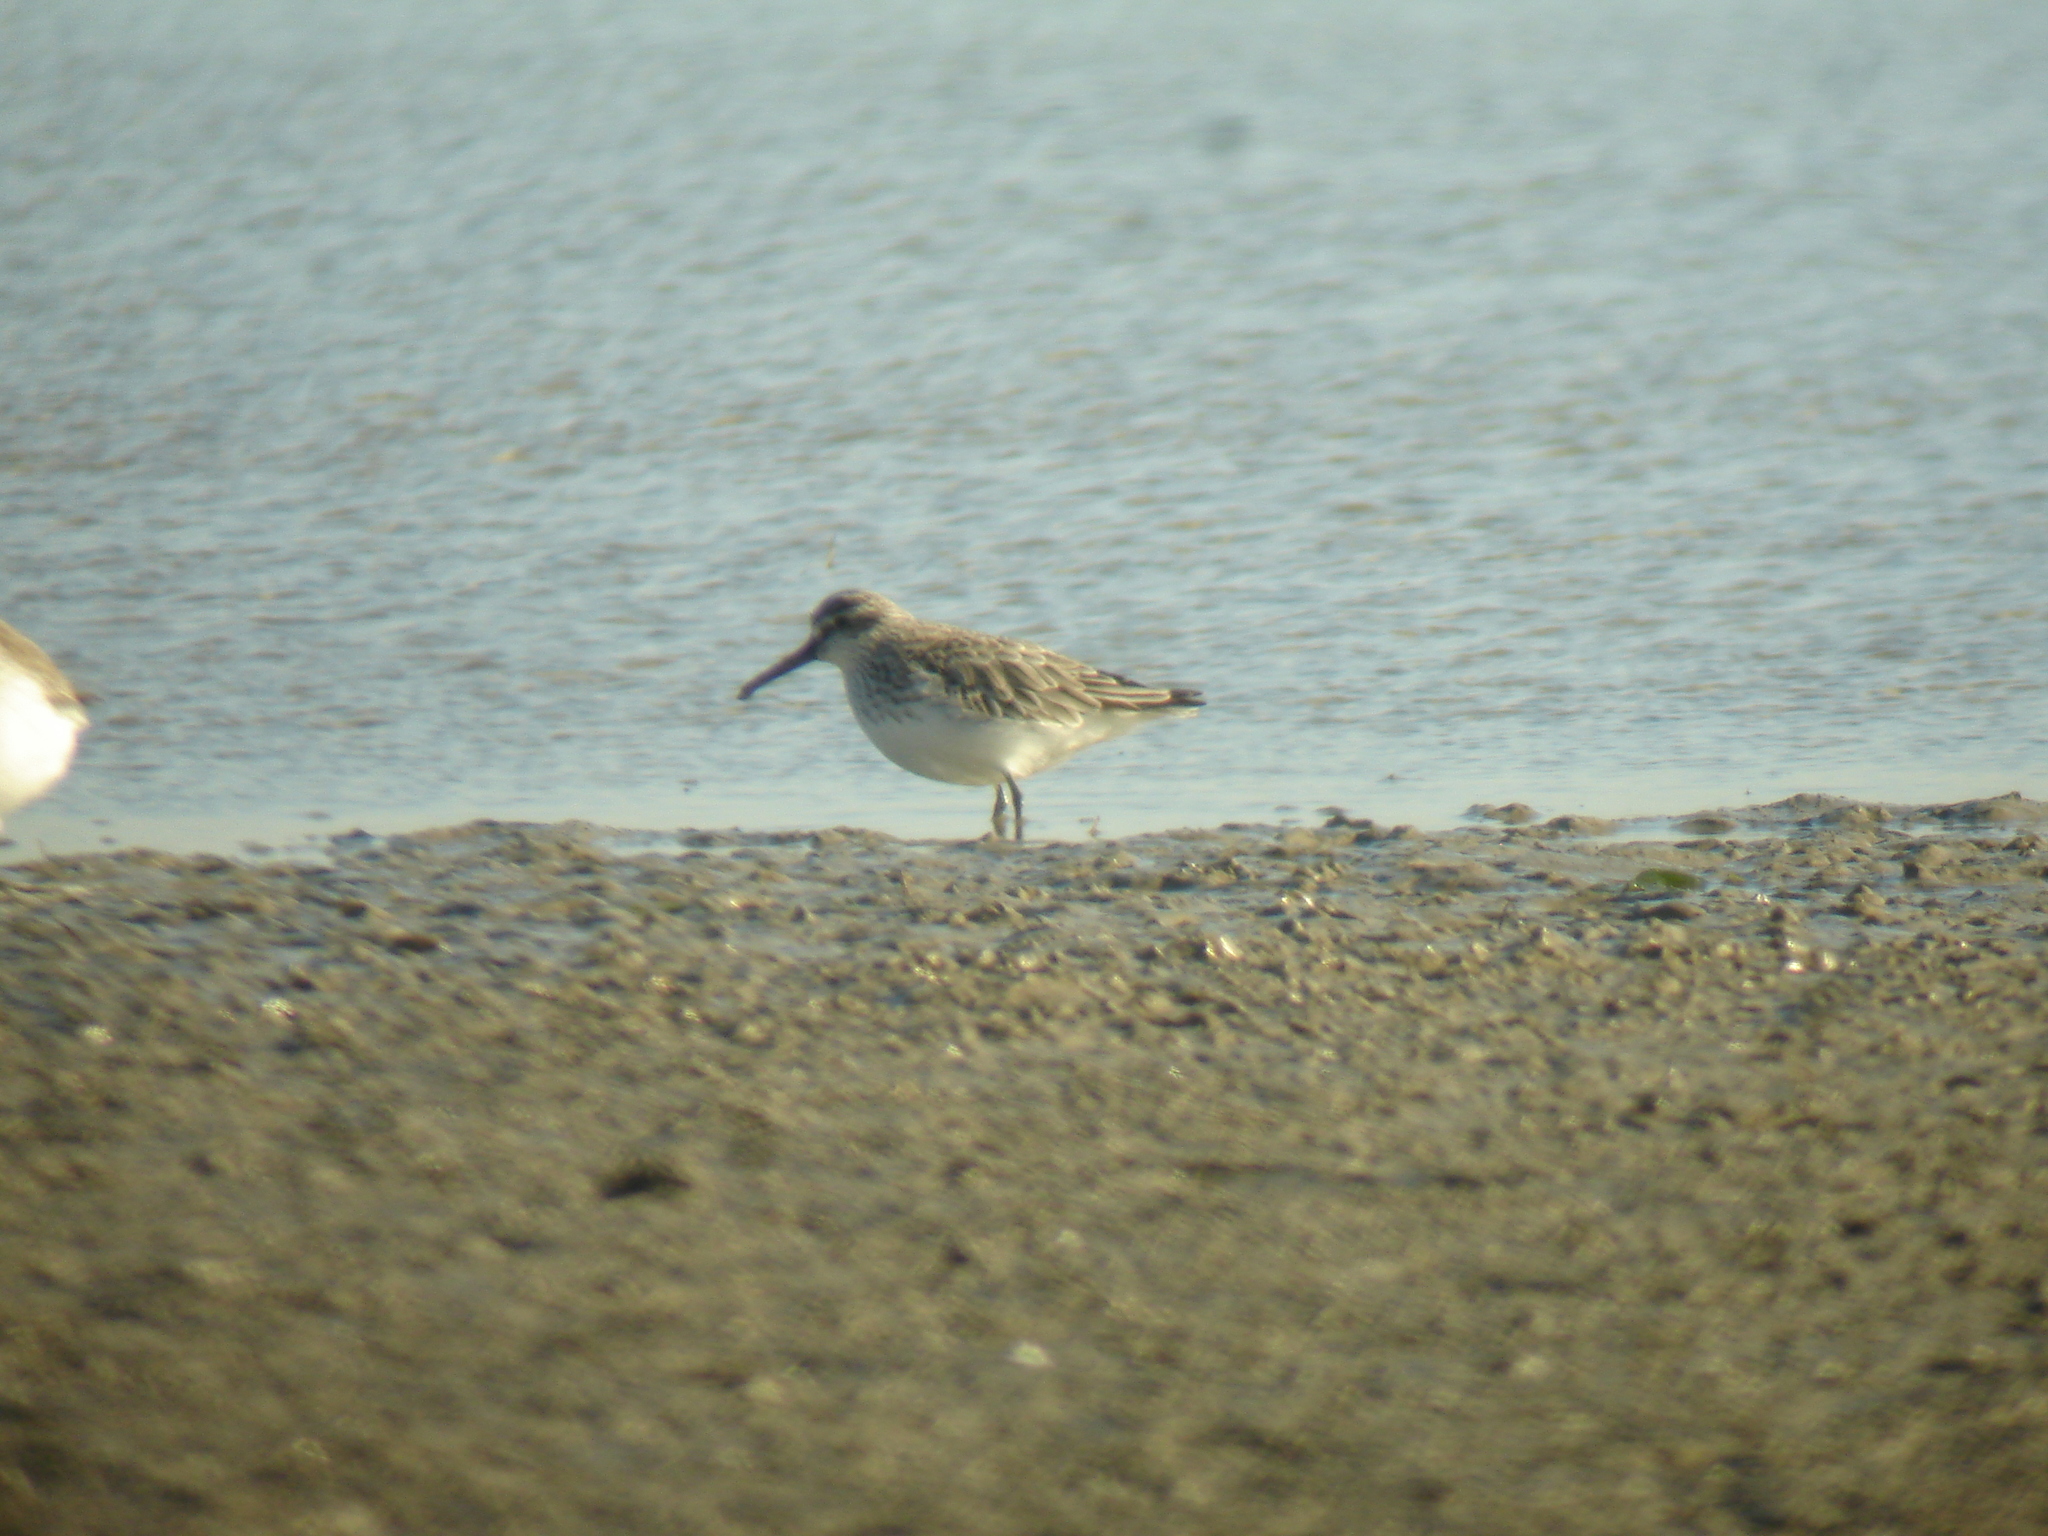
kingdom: Animalia
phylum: Chordata
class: Aves
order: Charadriiformes
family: Scolopacidae
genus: Calidris
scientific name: Calidris falcinellus
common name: Broad-billed sandpiper
